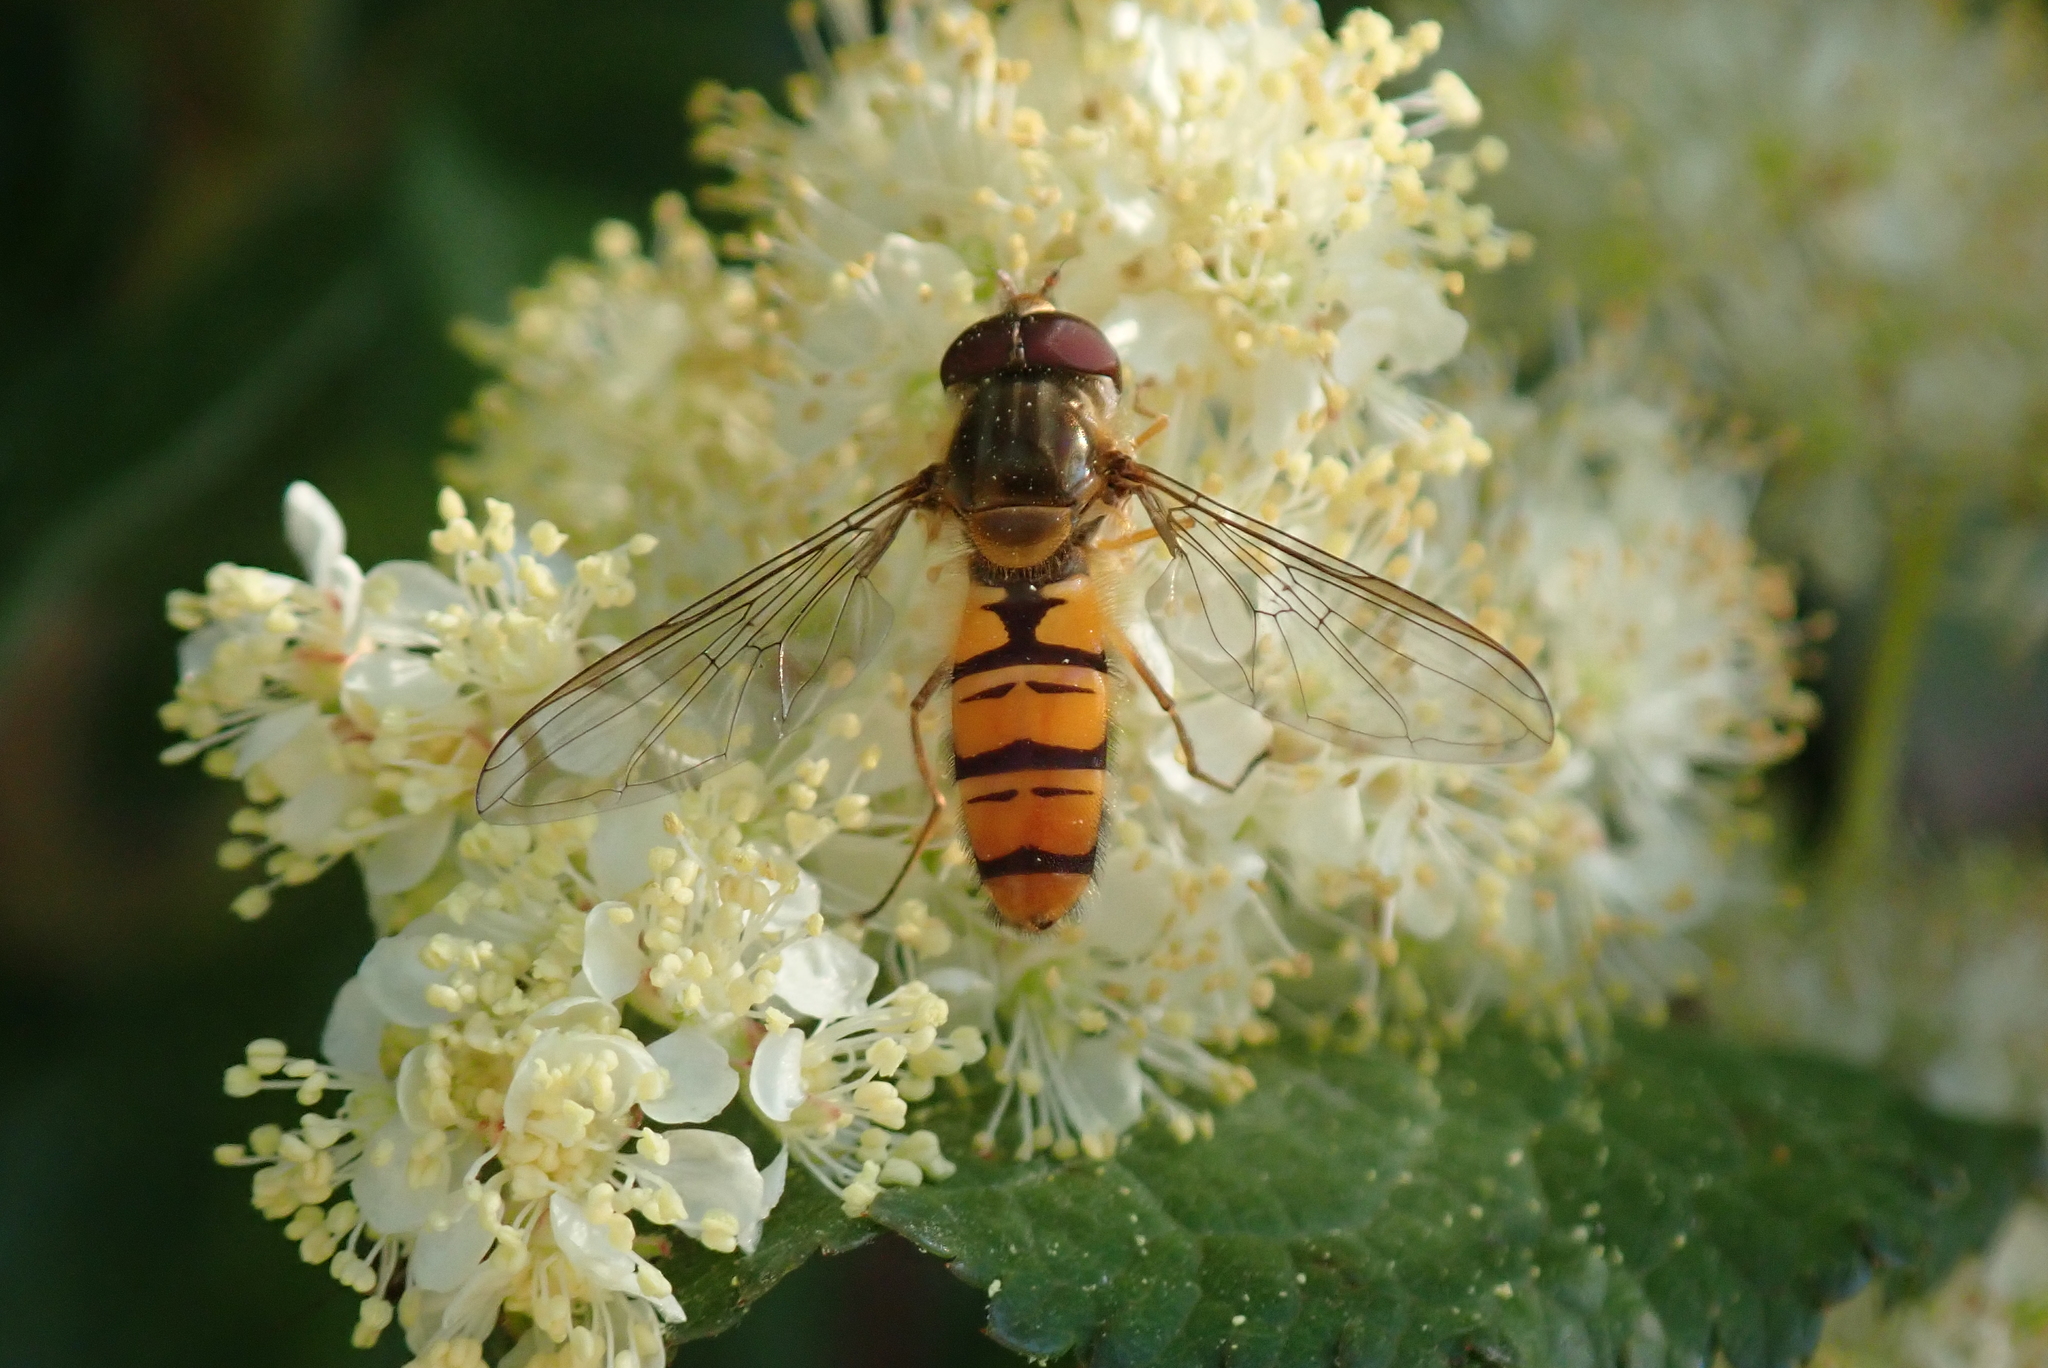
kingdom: Animalia
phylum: Arthropoda
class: Insecta
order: Diptera
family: Syrphidae
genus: Episyrphus
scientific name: Episyrphus balteatus
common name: Marmalade hoverfly
